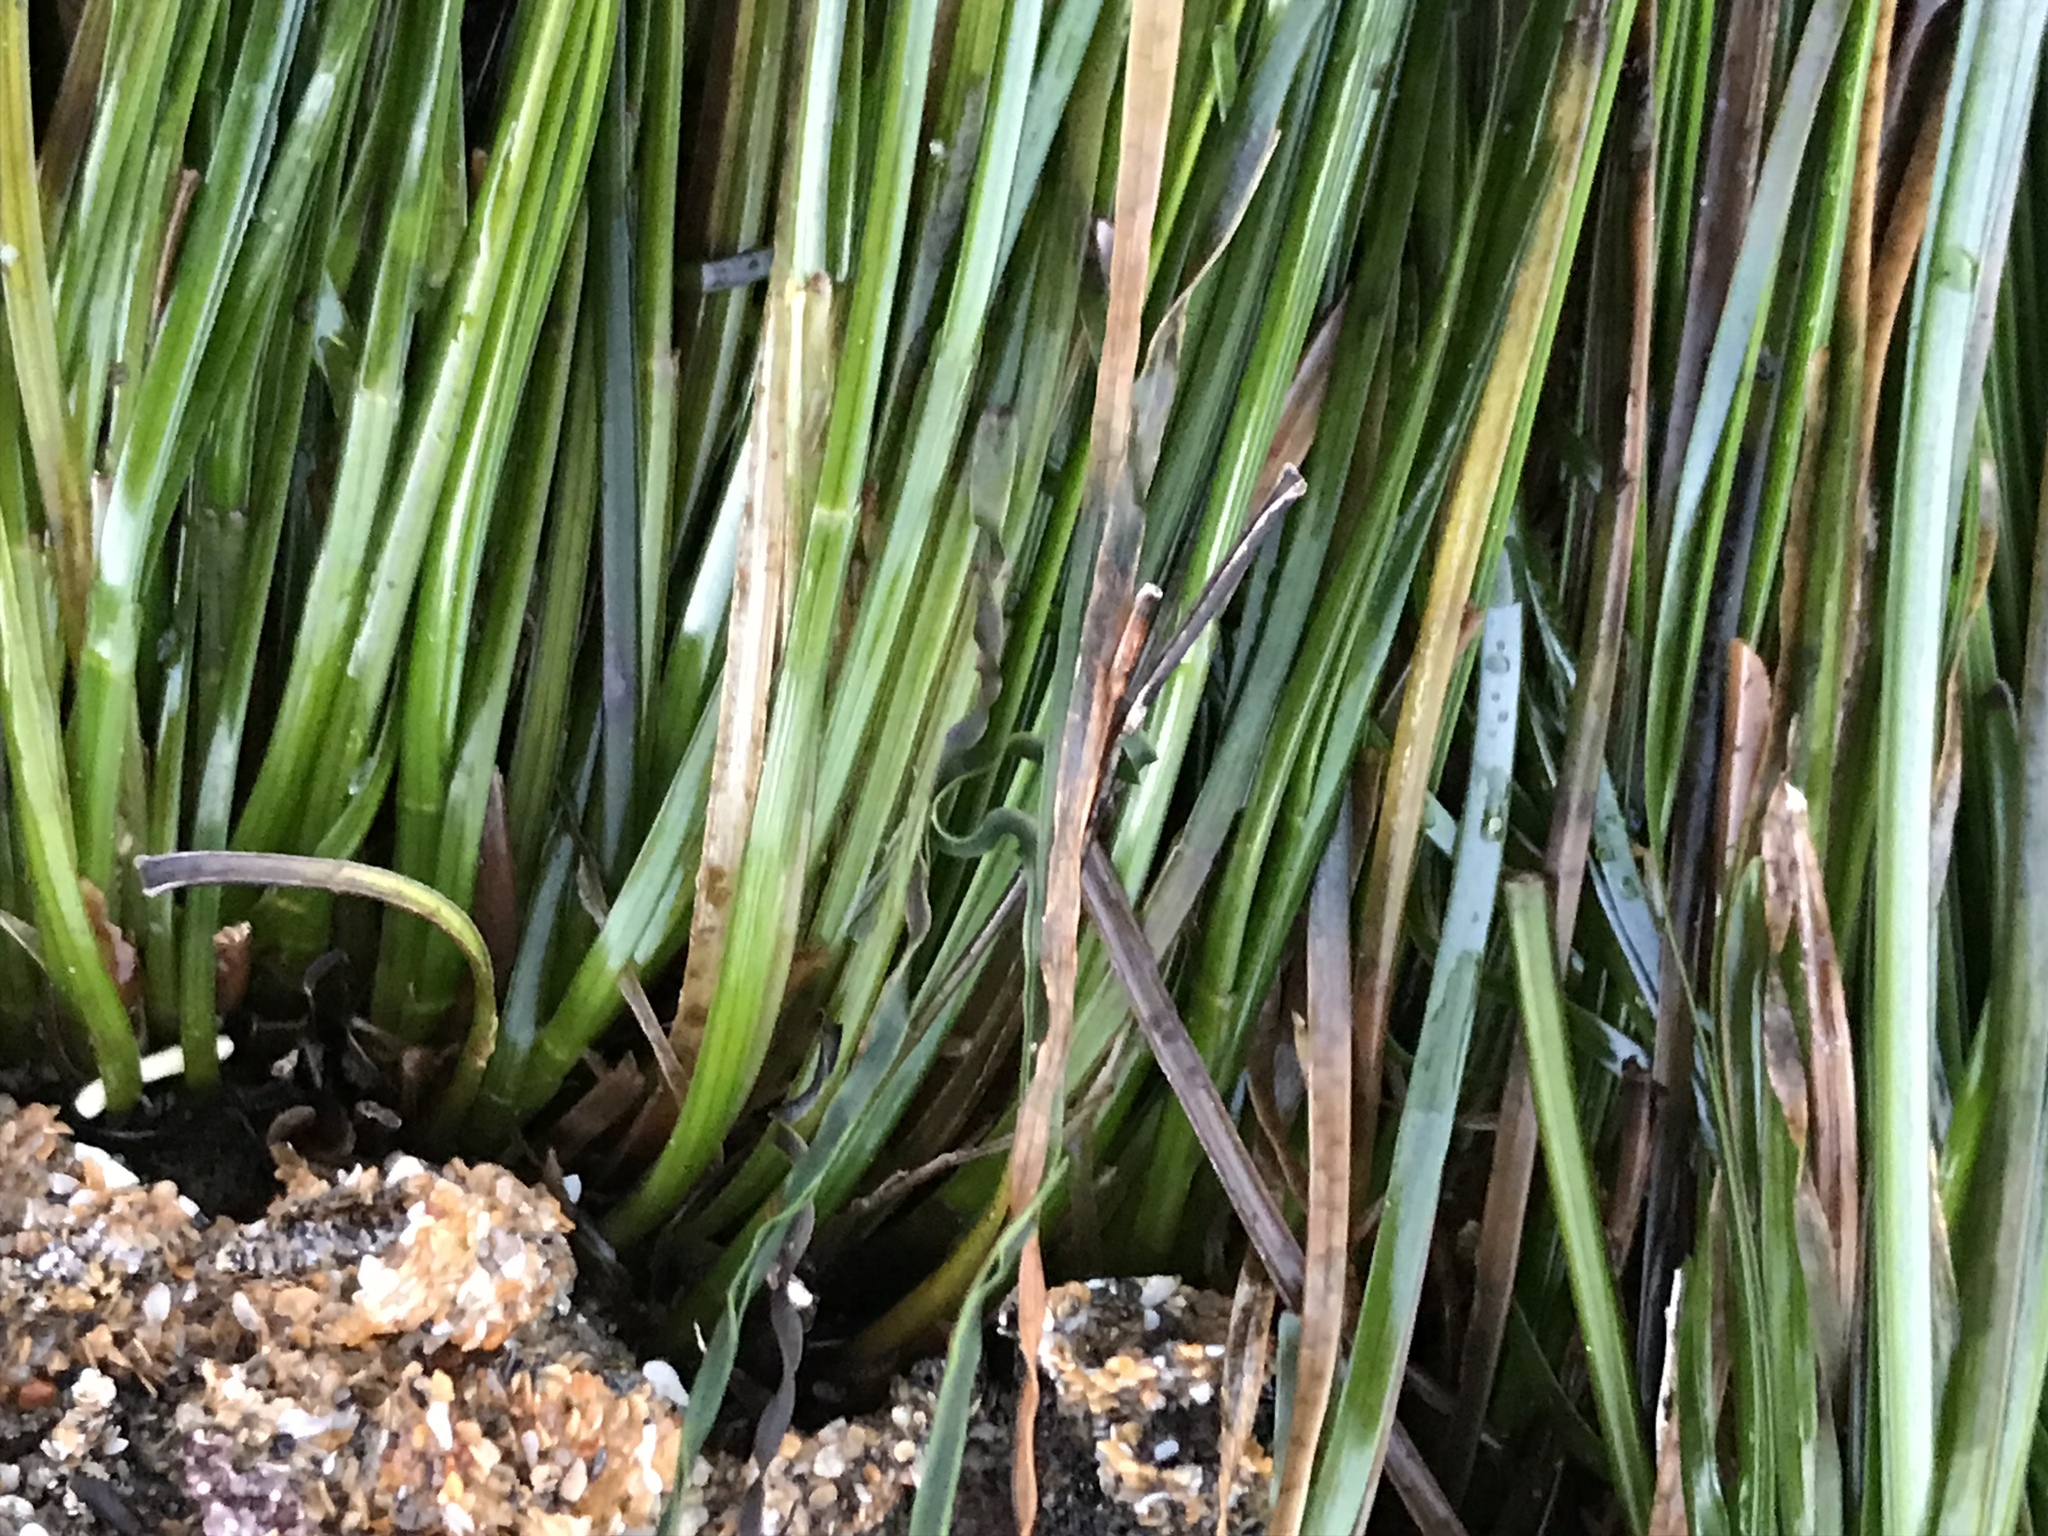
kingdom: Plantae
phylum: Tracheophyta
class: Liliopsida
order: Alismatales
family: Zosteraceae
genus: Phyllospadix
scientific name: Phyllospadix scouleri
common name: Species code: ps
